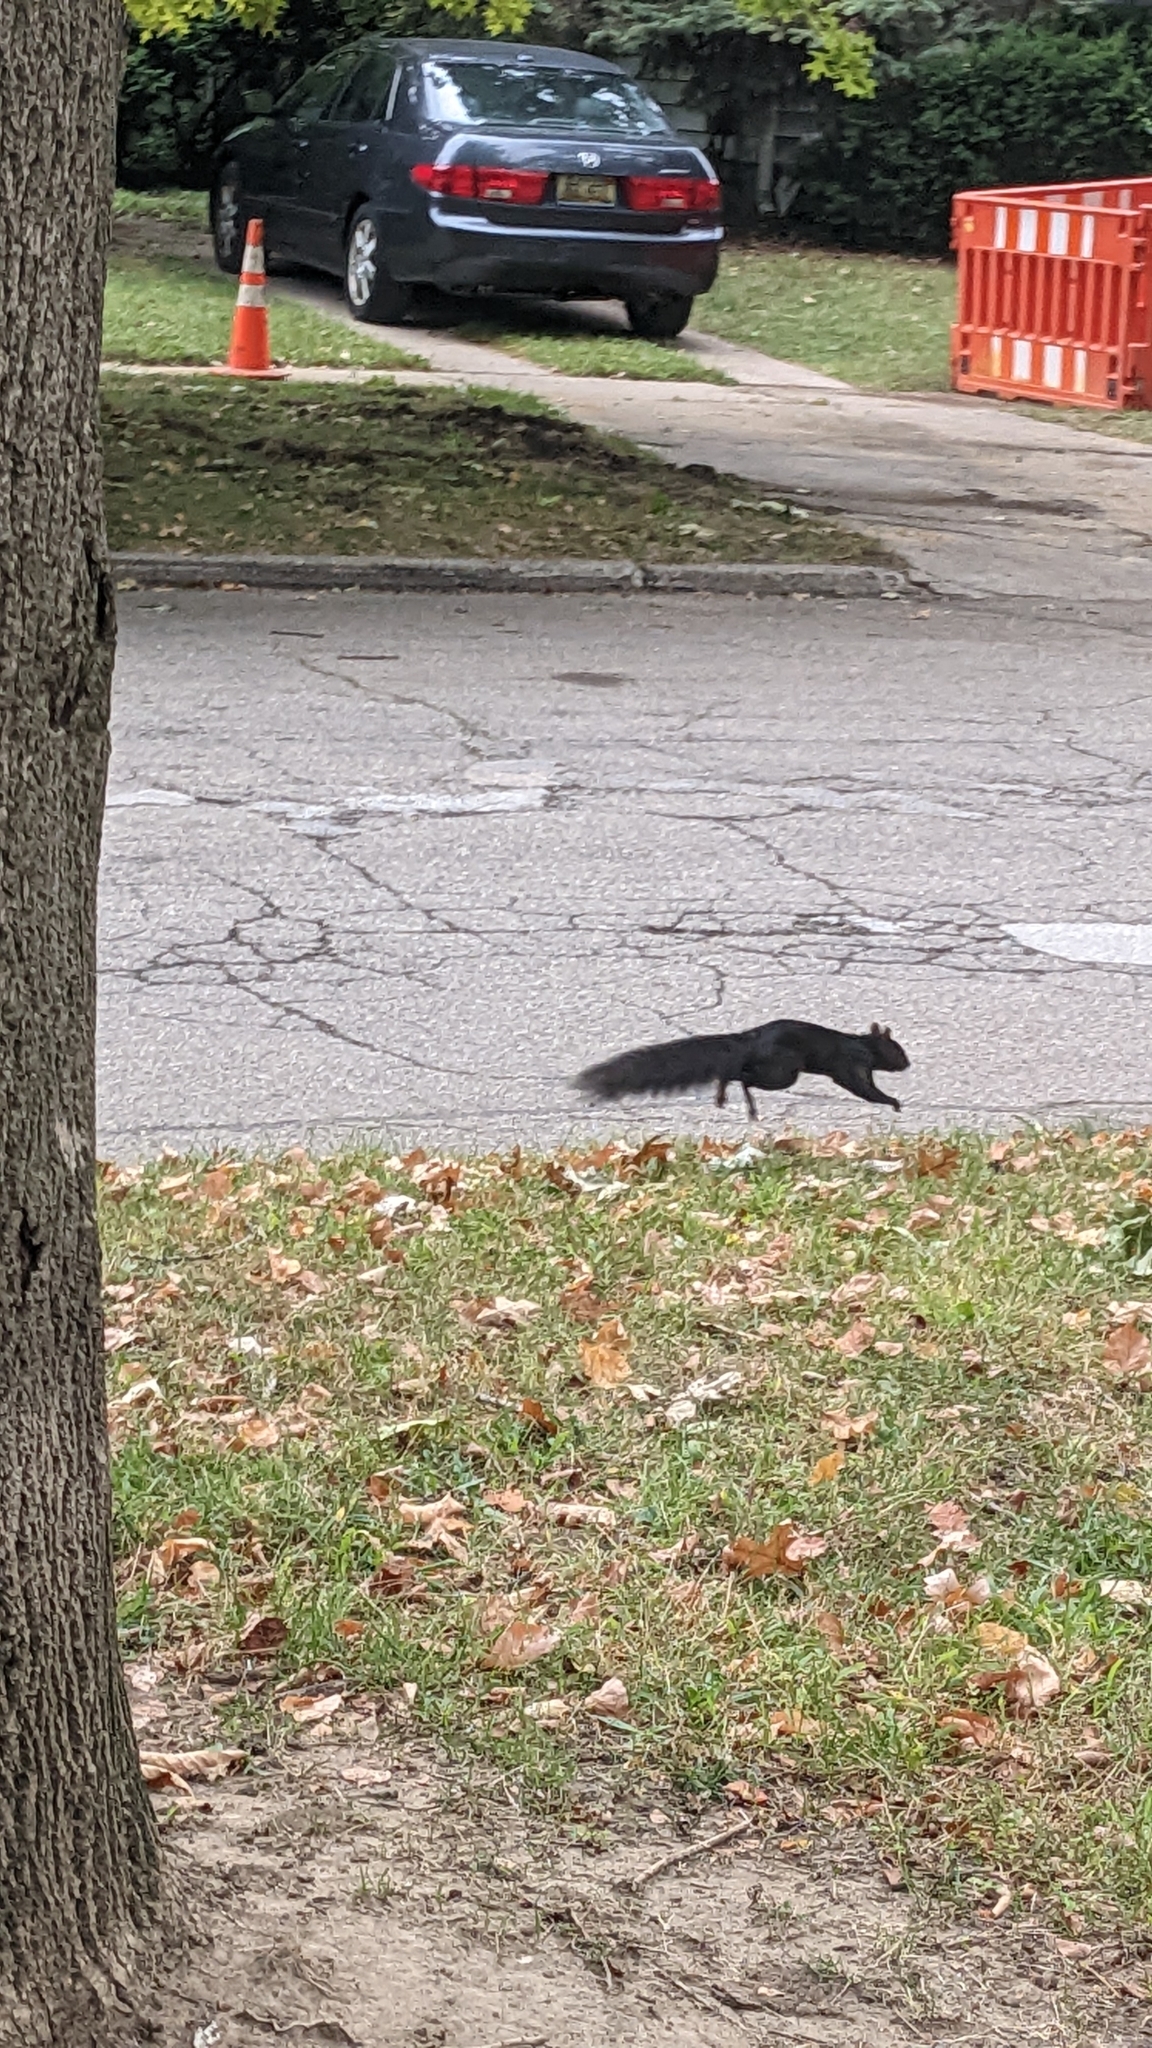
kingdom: Animalia
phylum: Chordata
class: Mammalia
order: Rodentia
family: Sciuridae
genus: Sciurus
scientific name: Sciurus carolinensis
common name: Eastern gray squirrel
